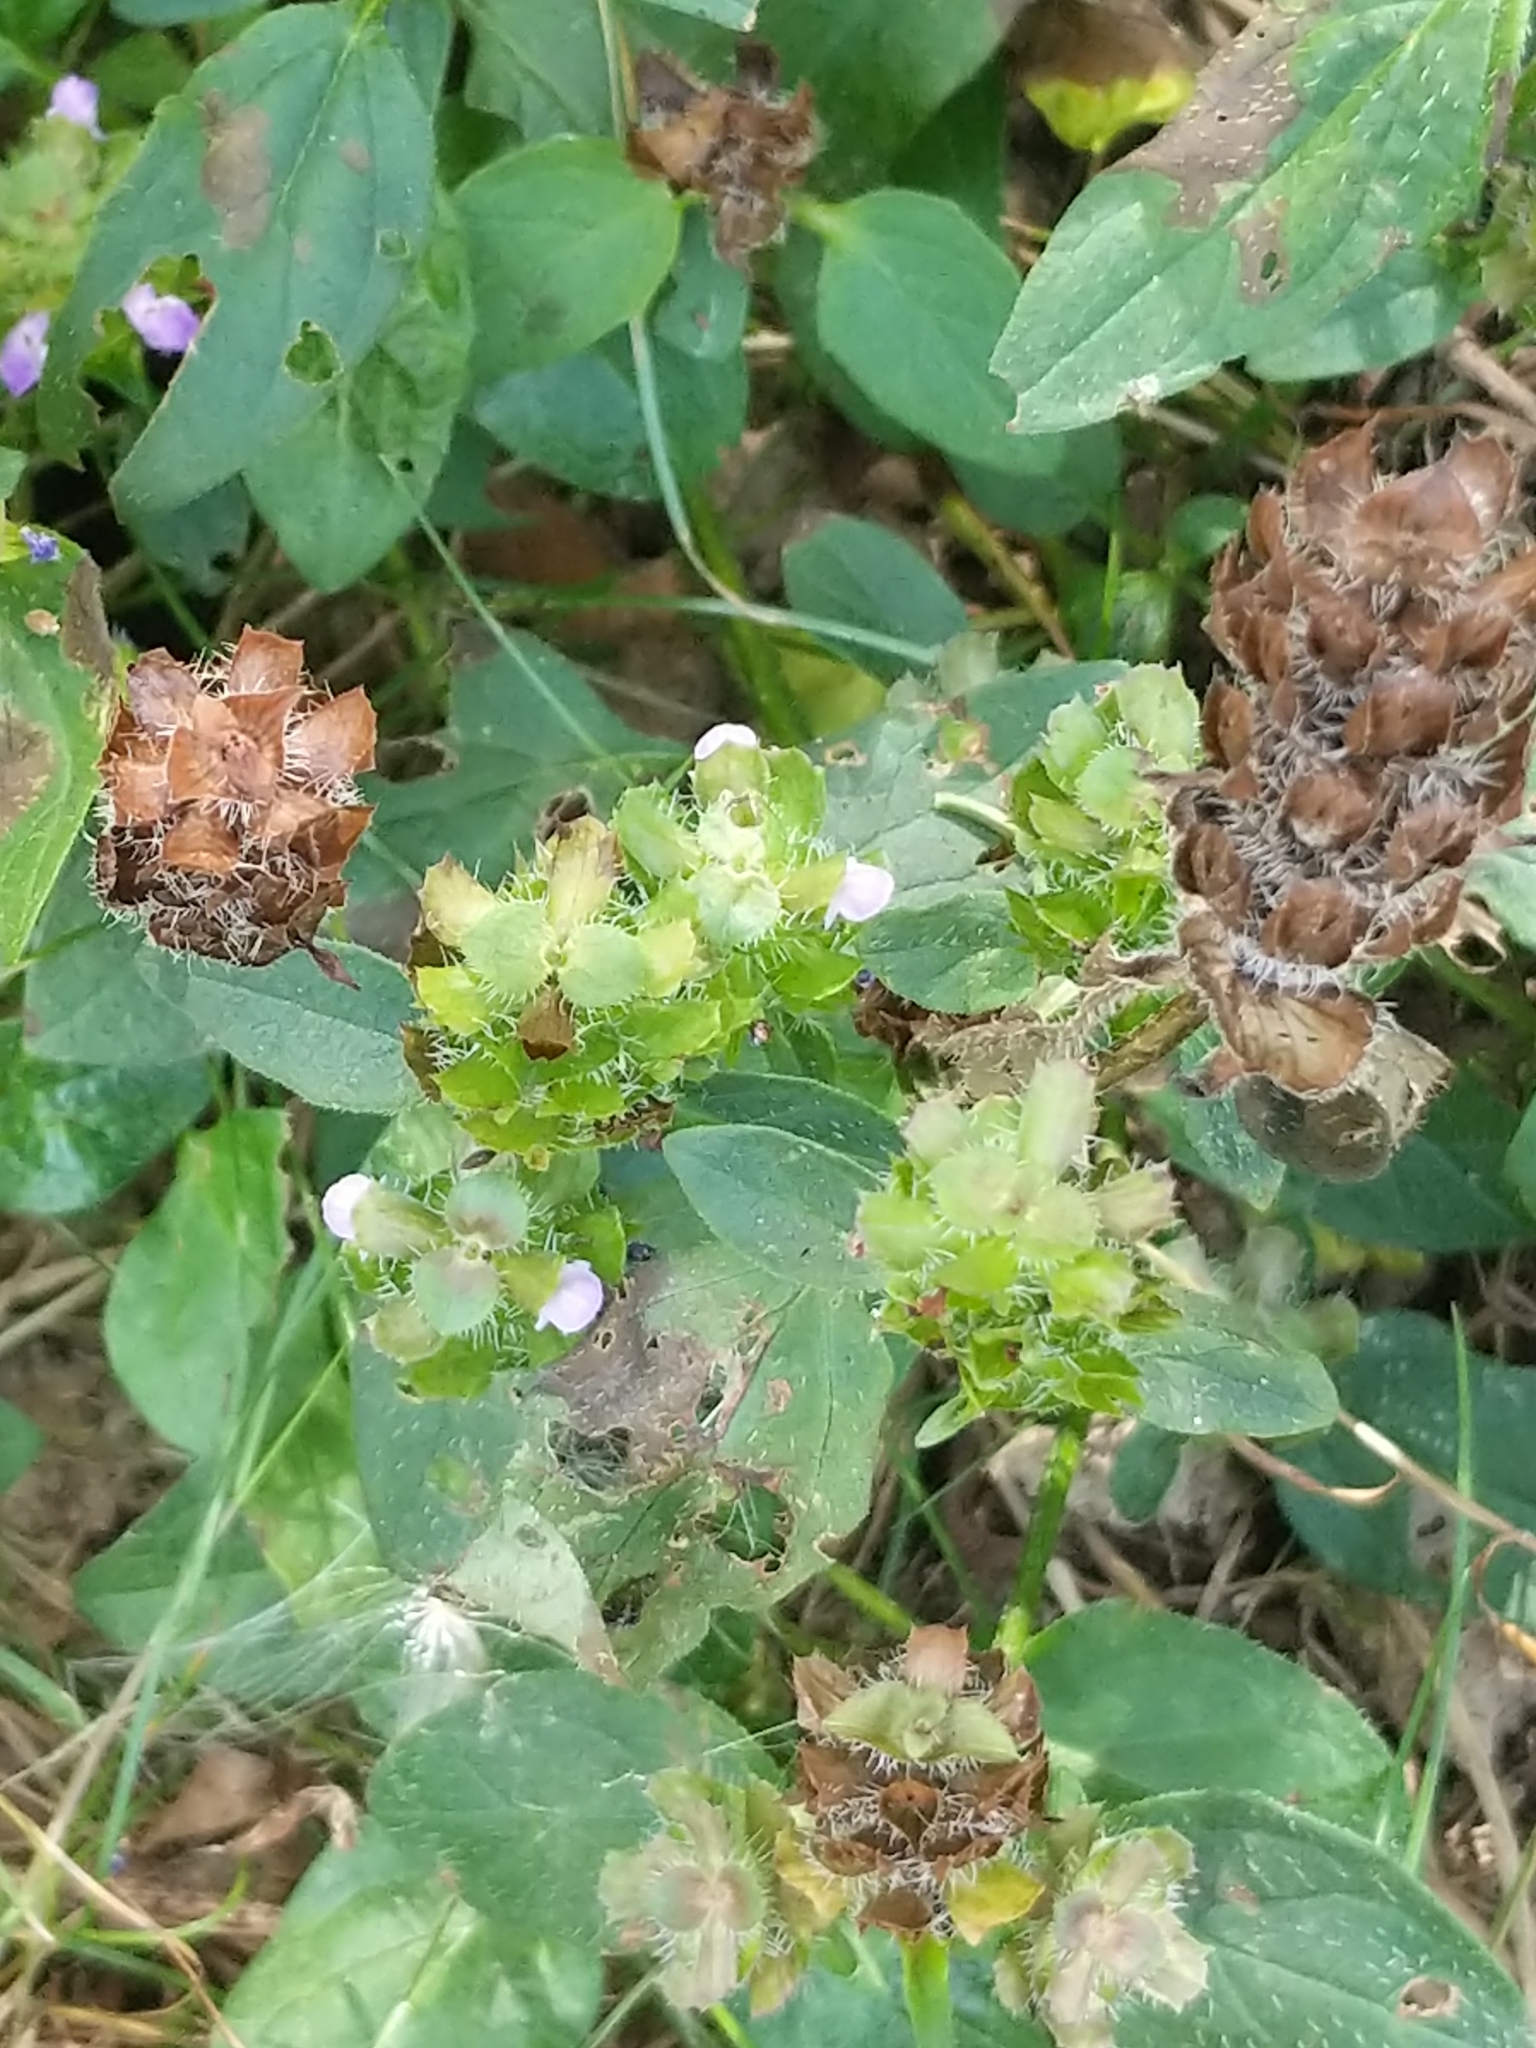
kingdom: Plantae
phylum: Tracheophyta
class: Magnoliopsida
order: Lamiales
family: Lamiaceae
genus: Prunella
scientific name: Prunella vulgaris
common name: Heal-all
